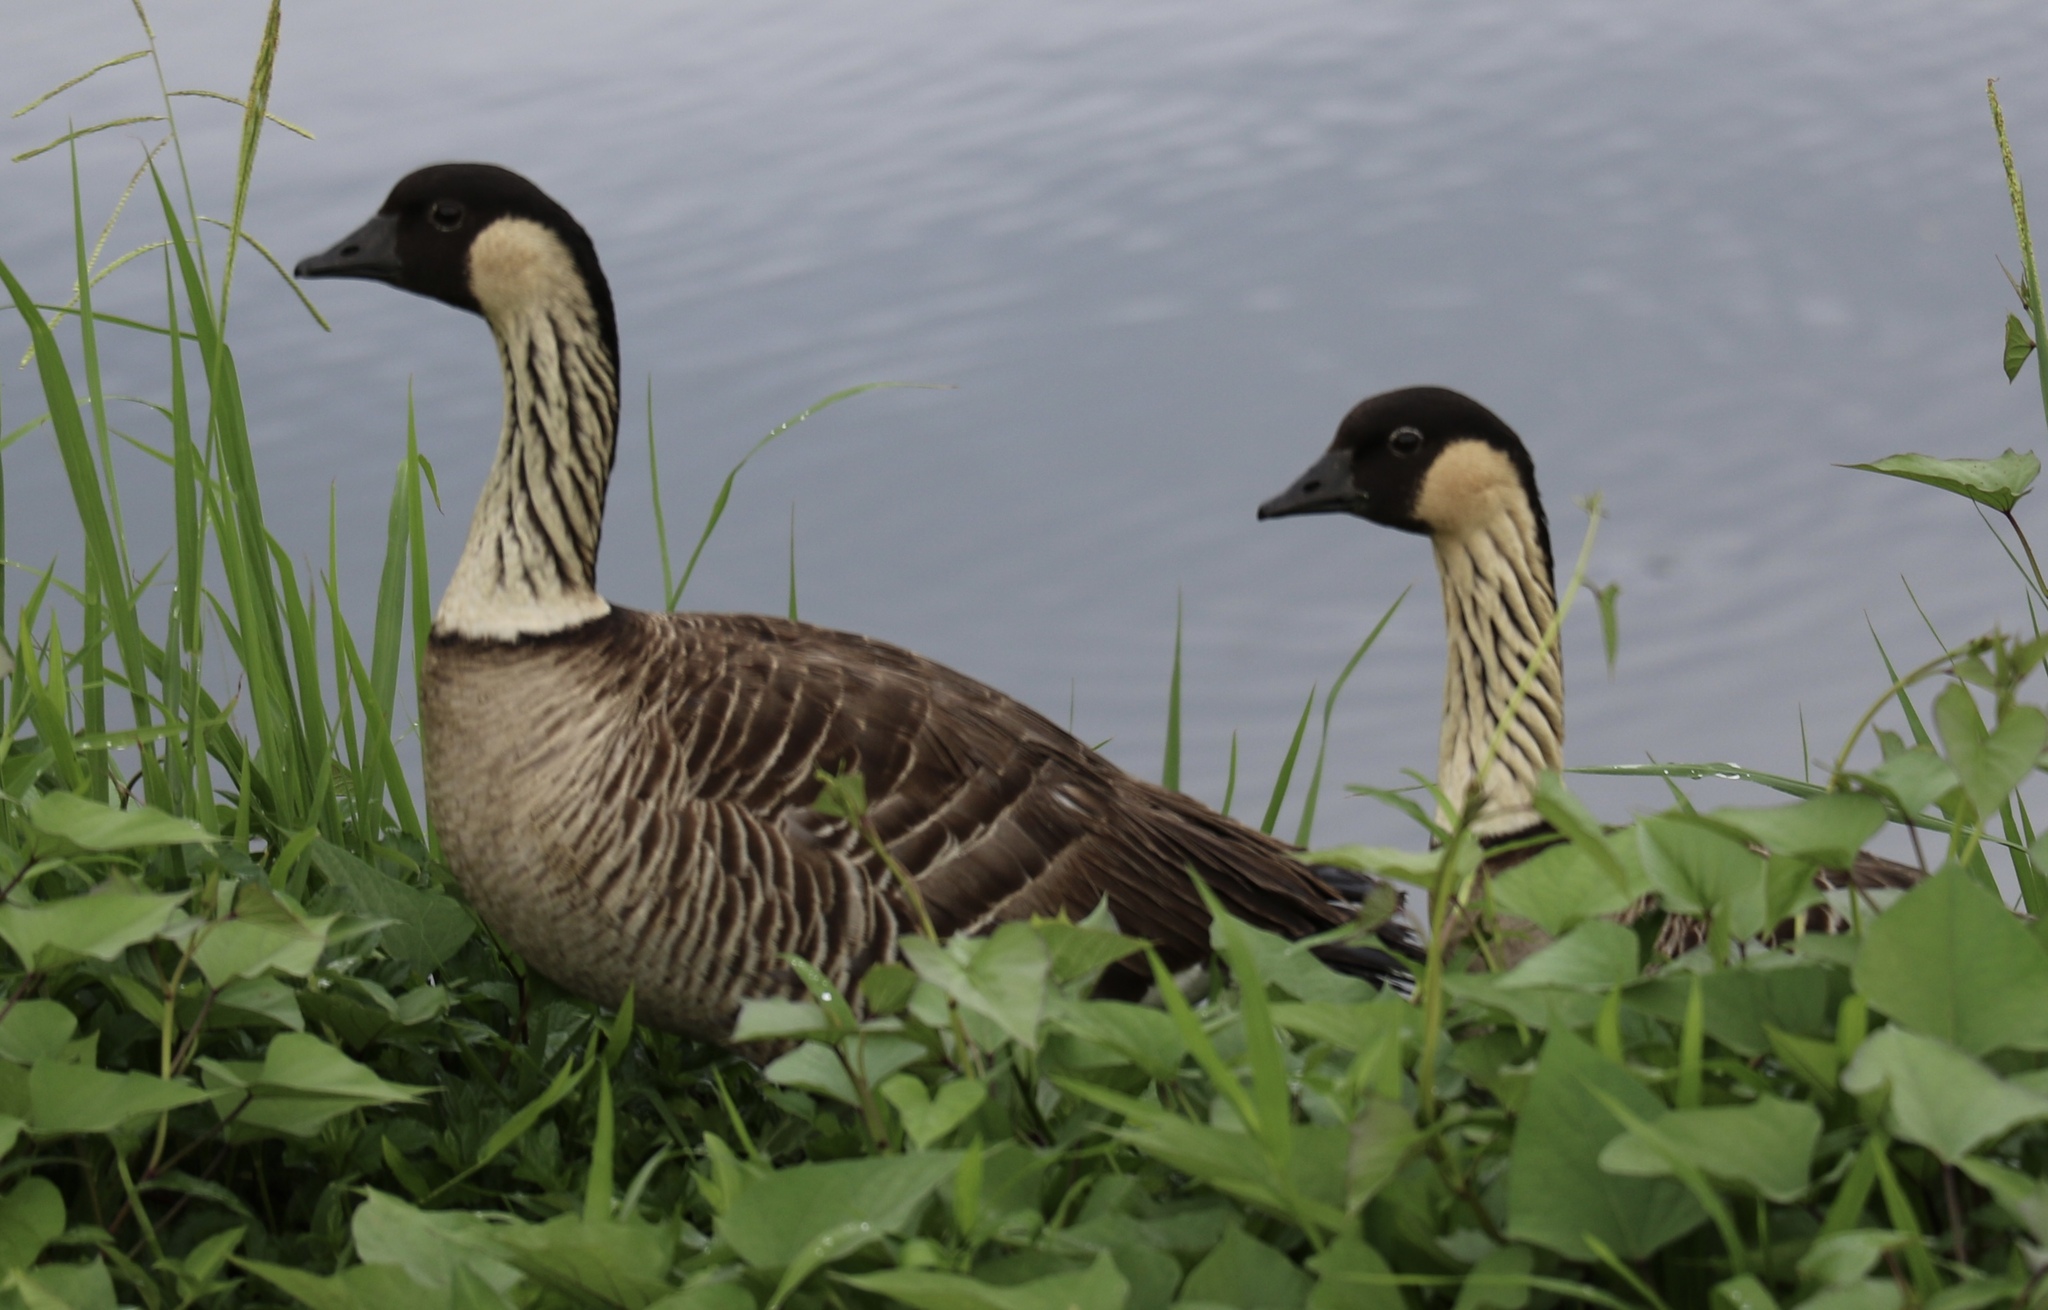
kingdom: Animalia
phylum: Chordata
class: Aves
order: Anseriformes
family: Anatidae
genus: Branta
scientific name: Branta sandvicensis
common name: Nene
